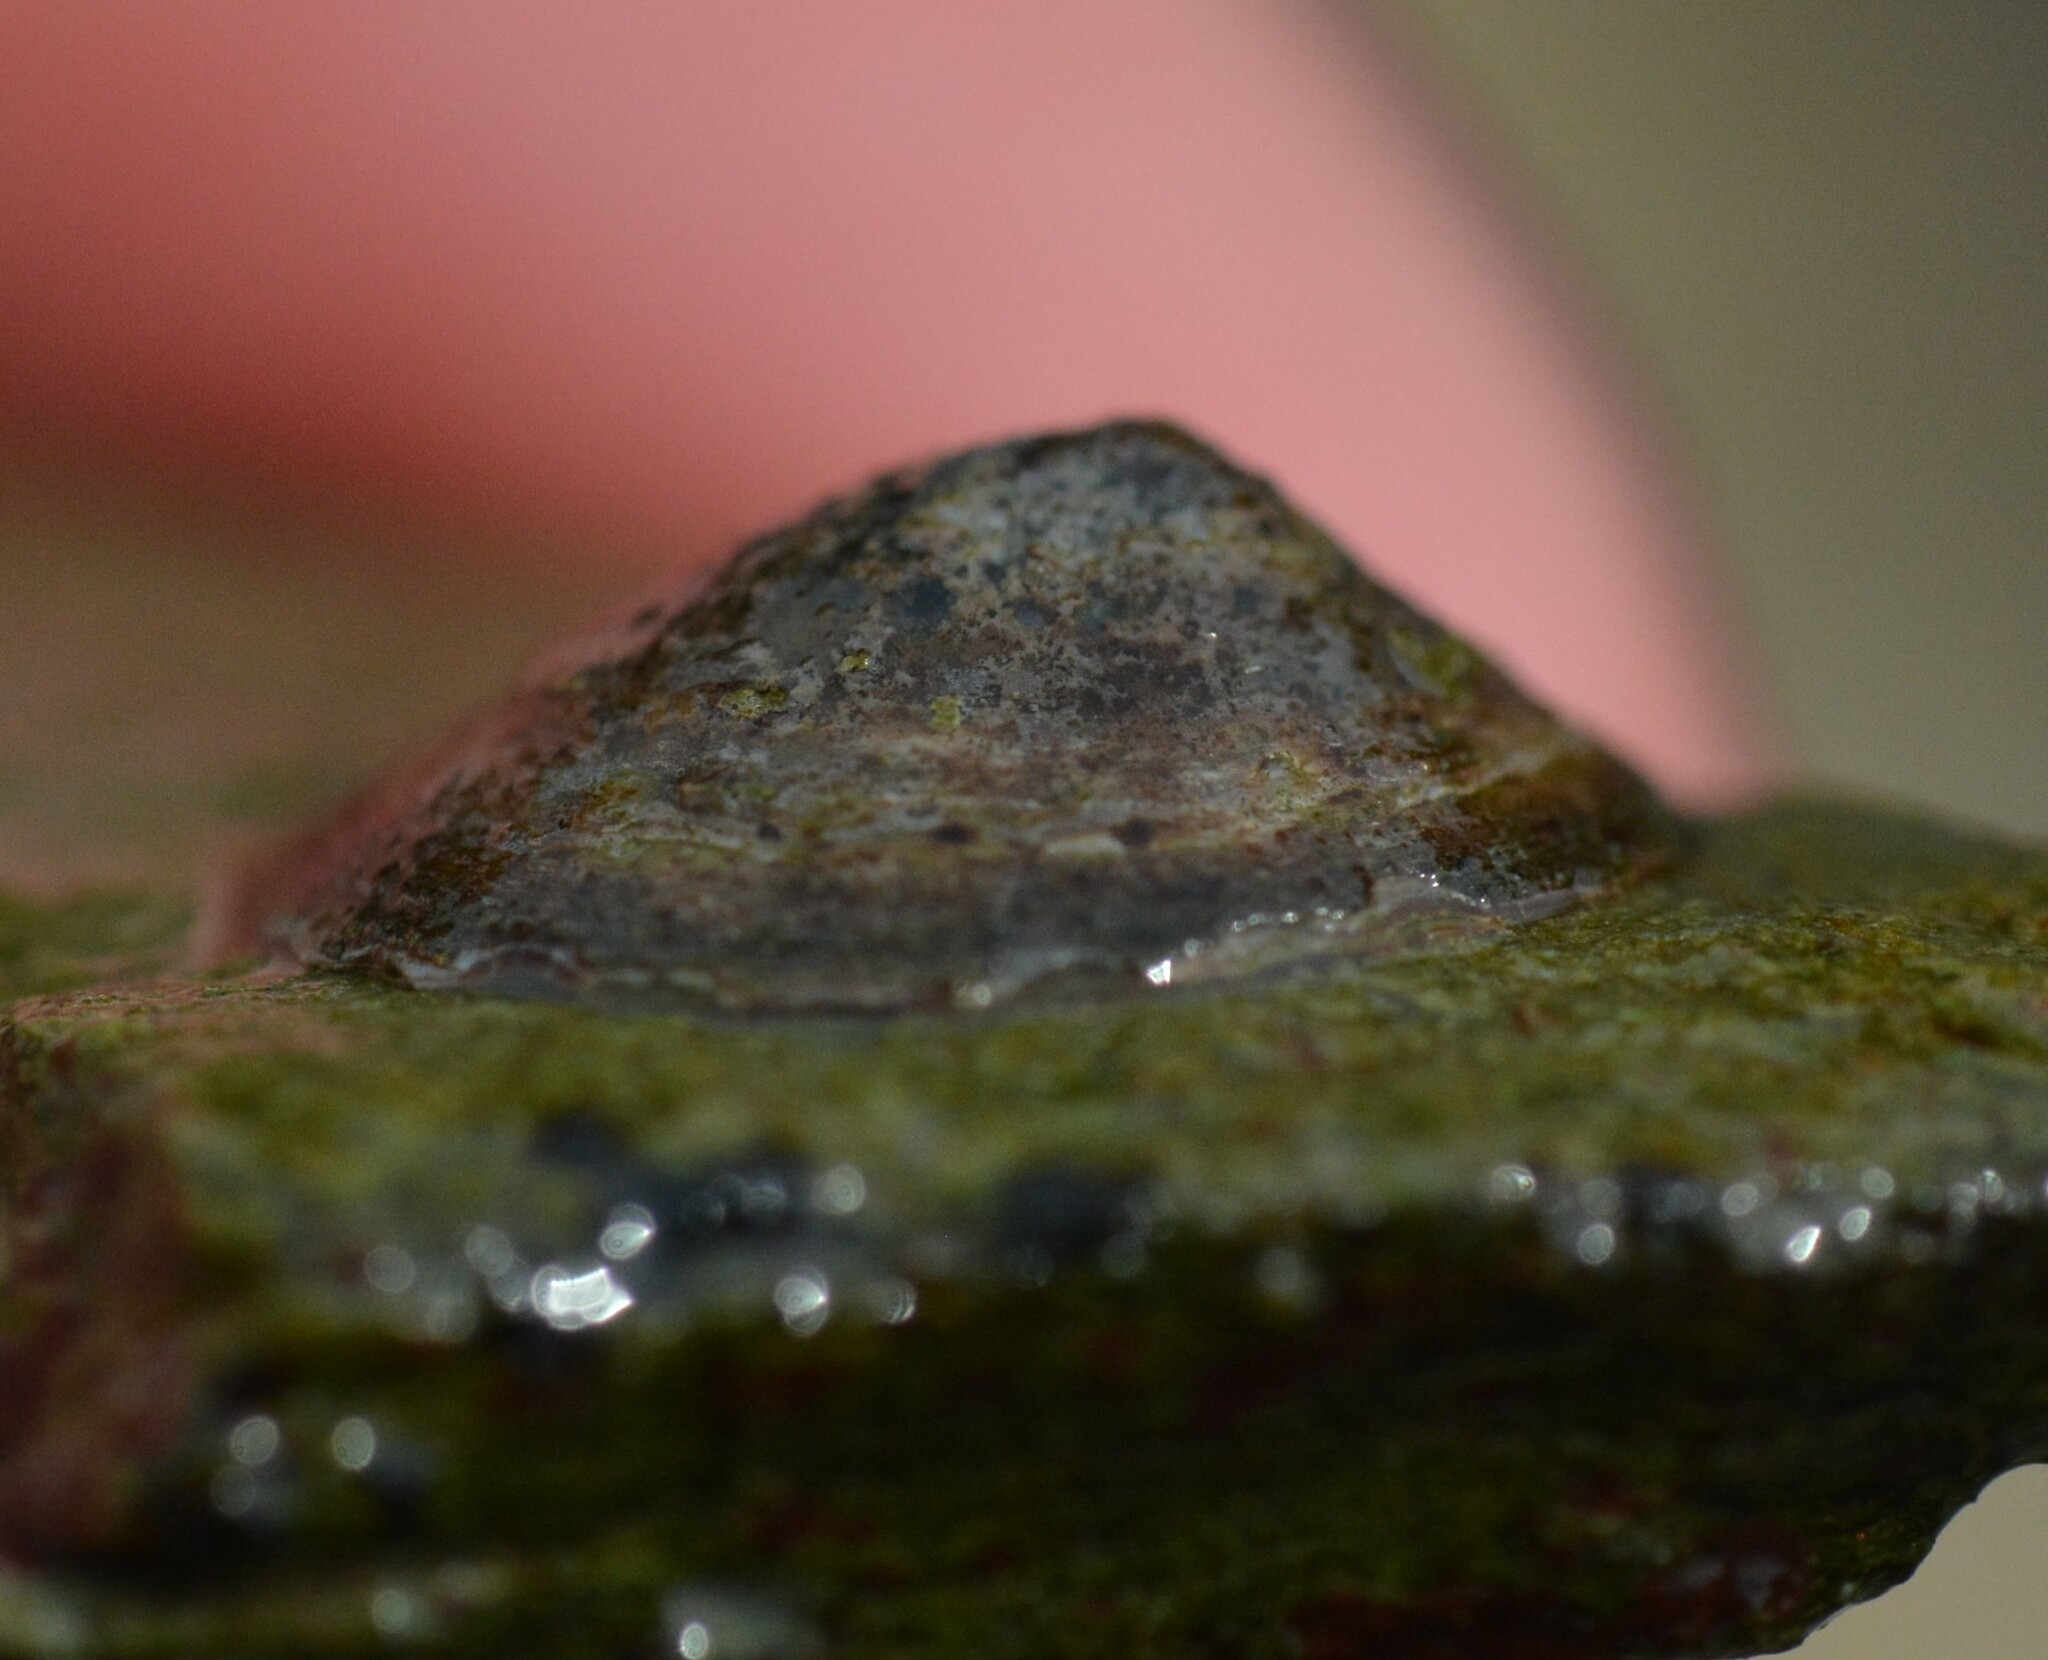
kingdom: Animalia
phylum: Mollusca
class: Gastropoda
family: Lottiidae
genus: Testudinalia
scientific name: Testudinalia testudinalis
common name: Common tortoiseshell limpet
